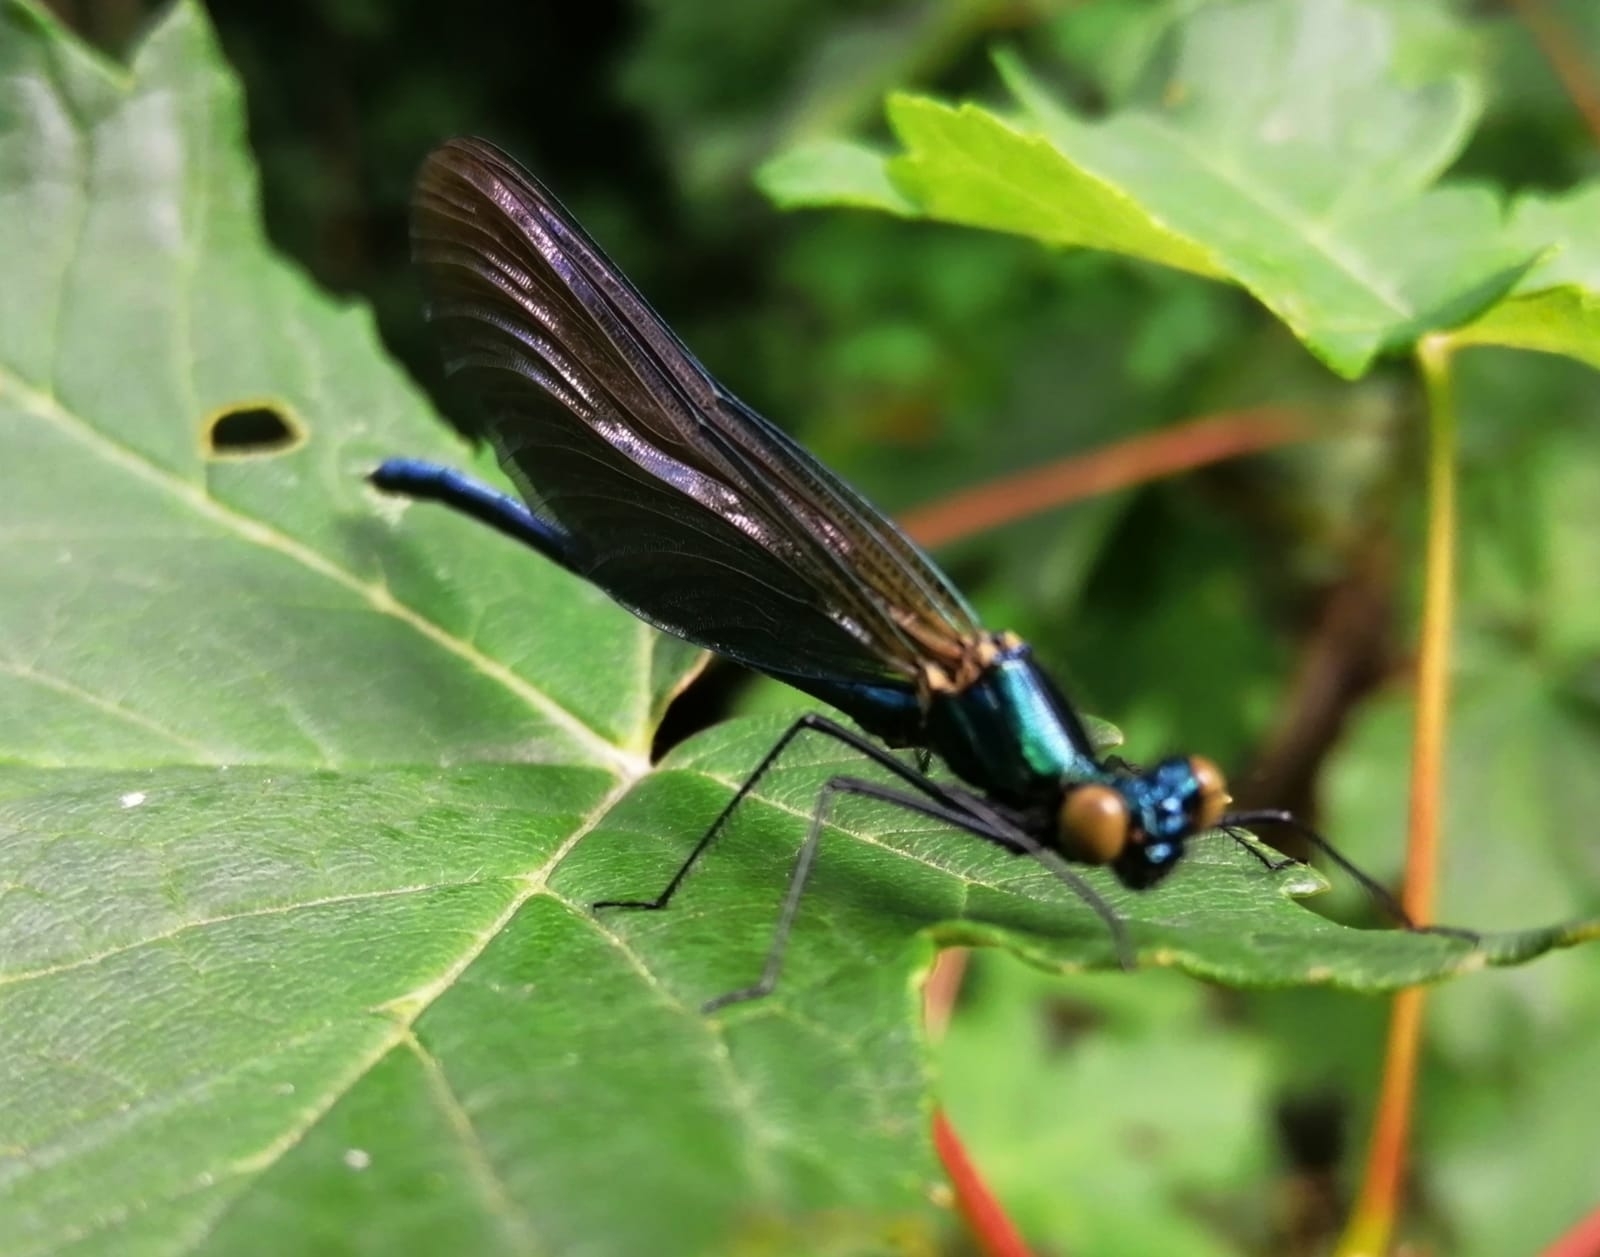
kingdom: Animalia
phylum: Arthropoda
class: Insecta
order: Odonata
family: Calopterygidae
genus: Calopteryx
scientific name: Calopteryx virgo
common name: Beautiful demoiselle
